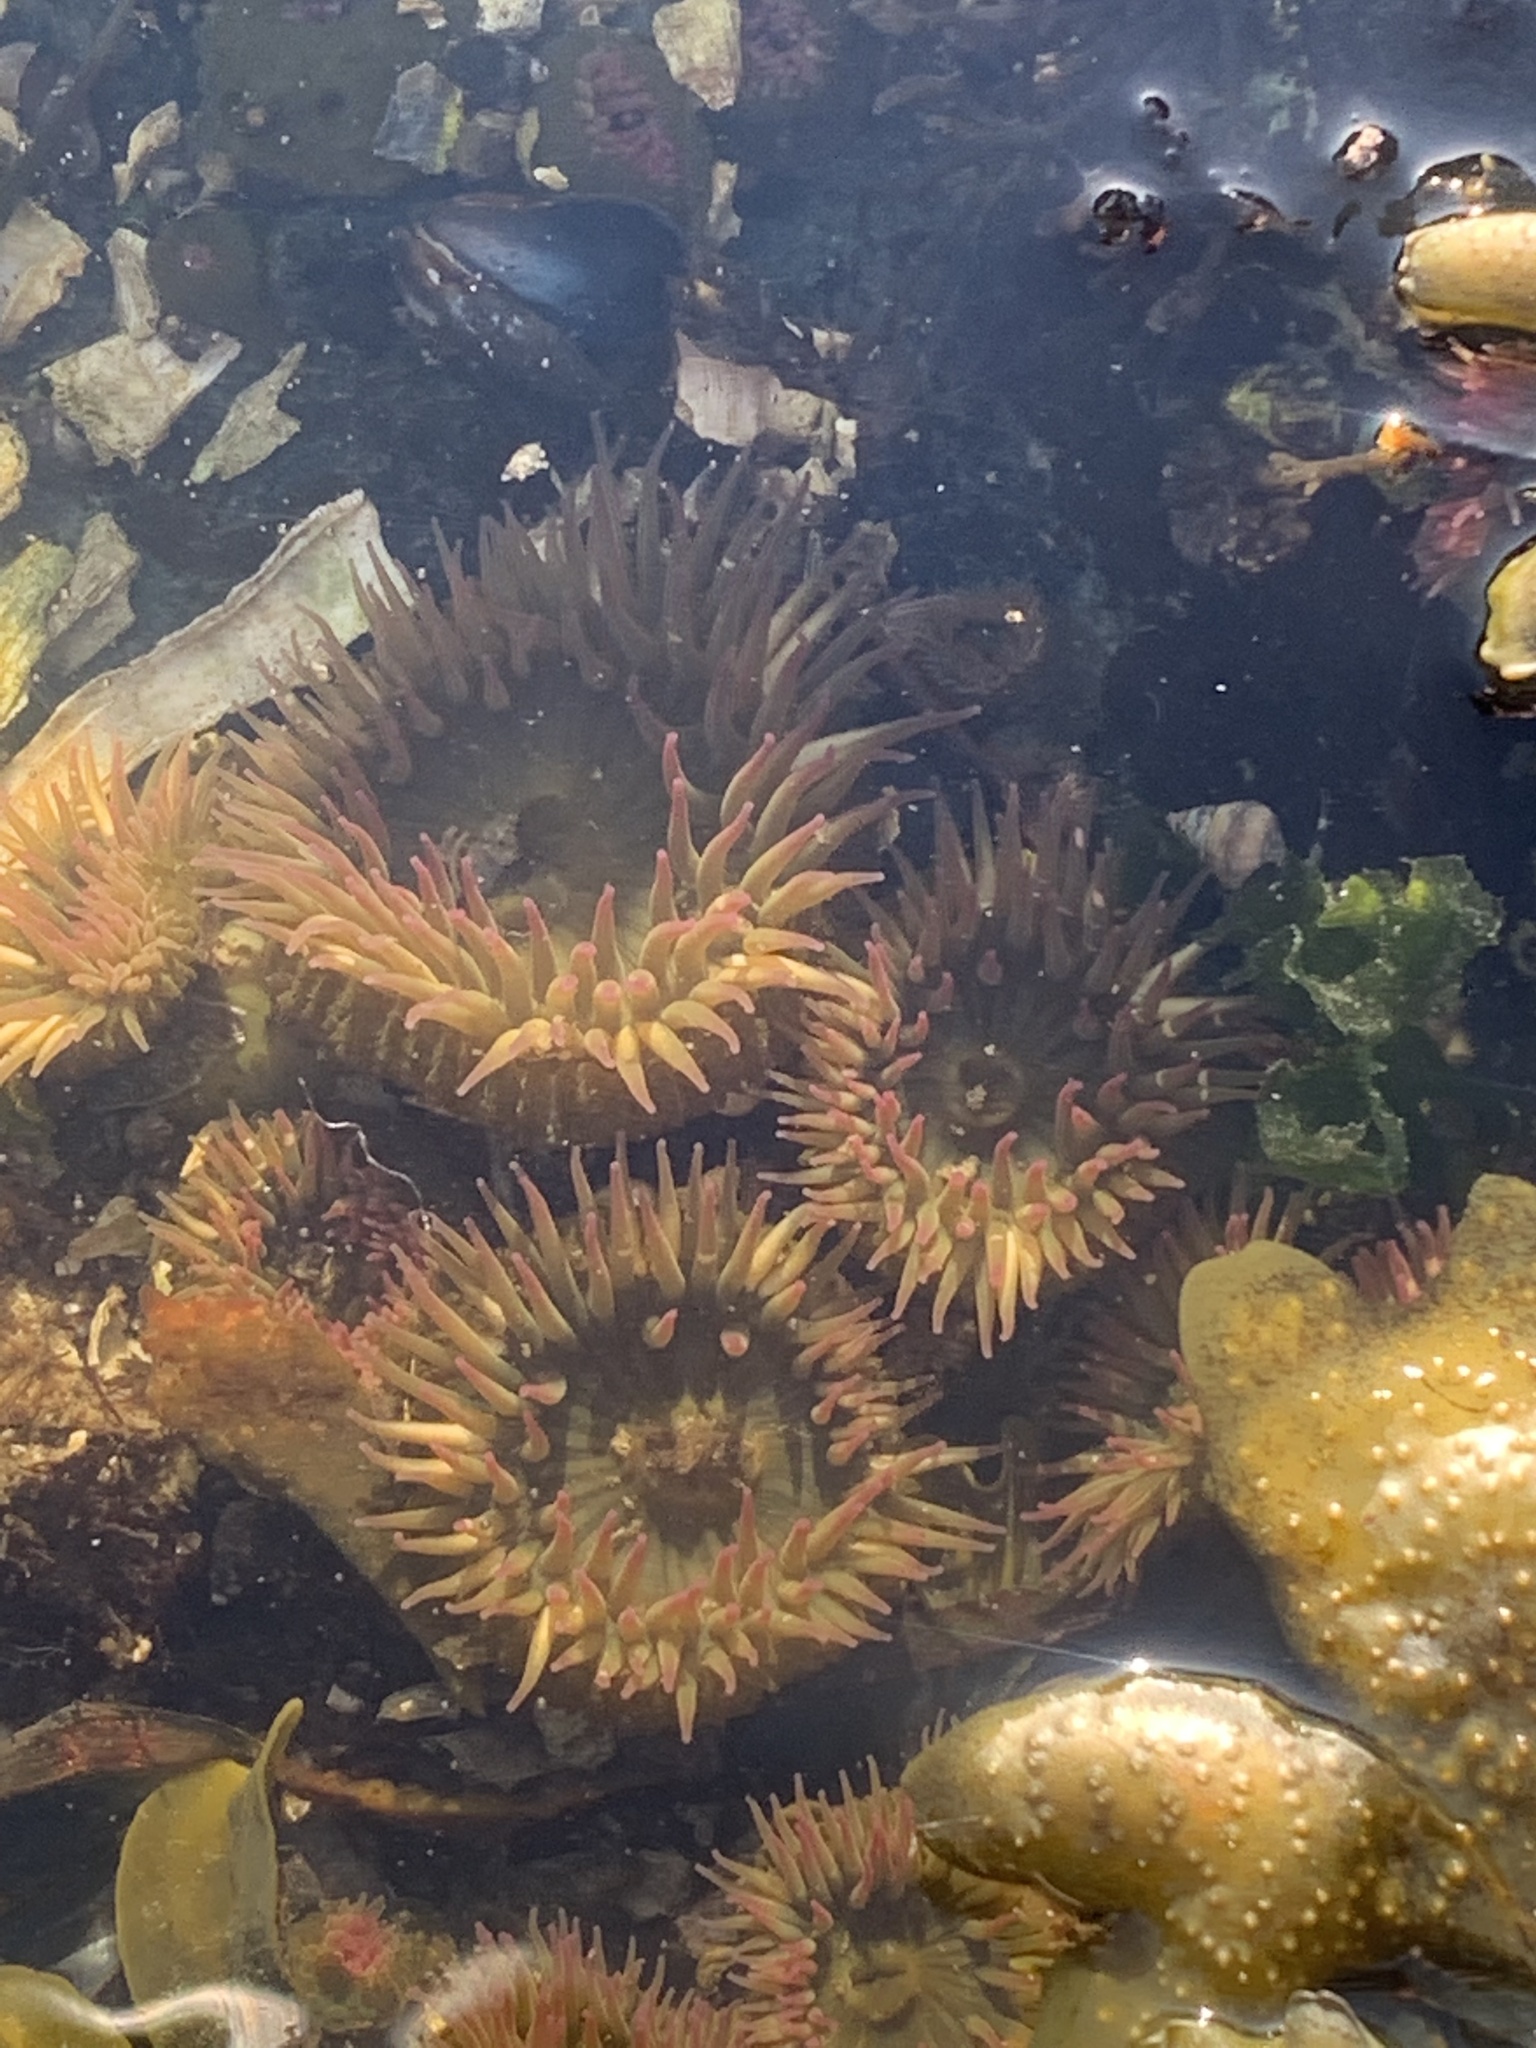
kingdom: Animalia
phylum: Cnidaria
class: Anthozoa
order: Actiniaria
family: Actiniidae
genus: Anthopleura
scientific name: Anthopleura elegantissima
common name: Clonal anemone
